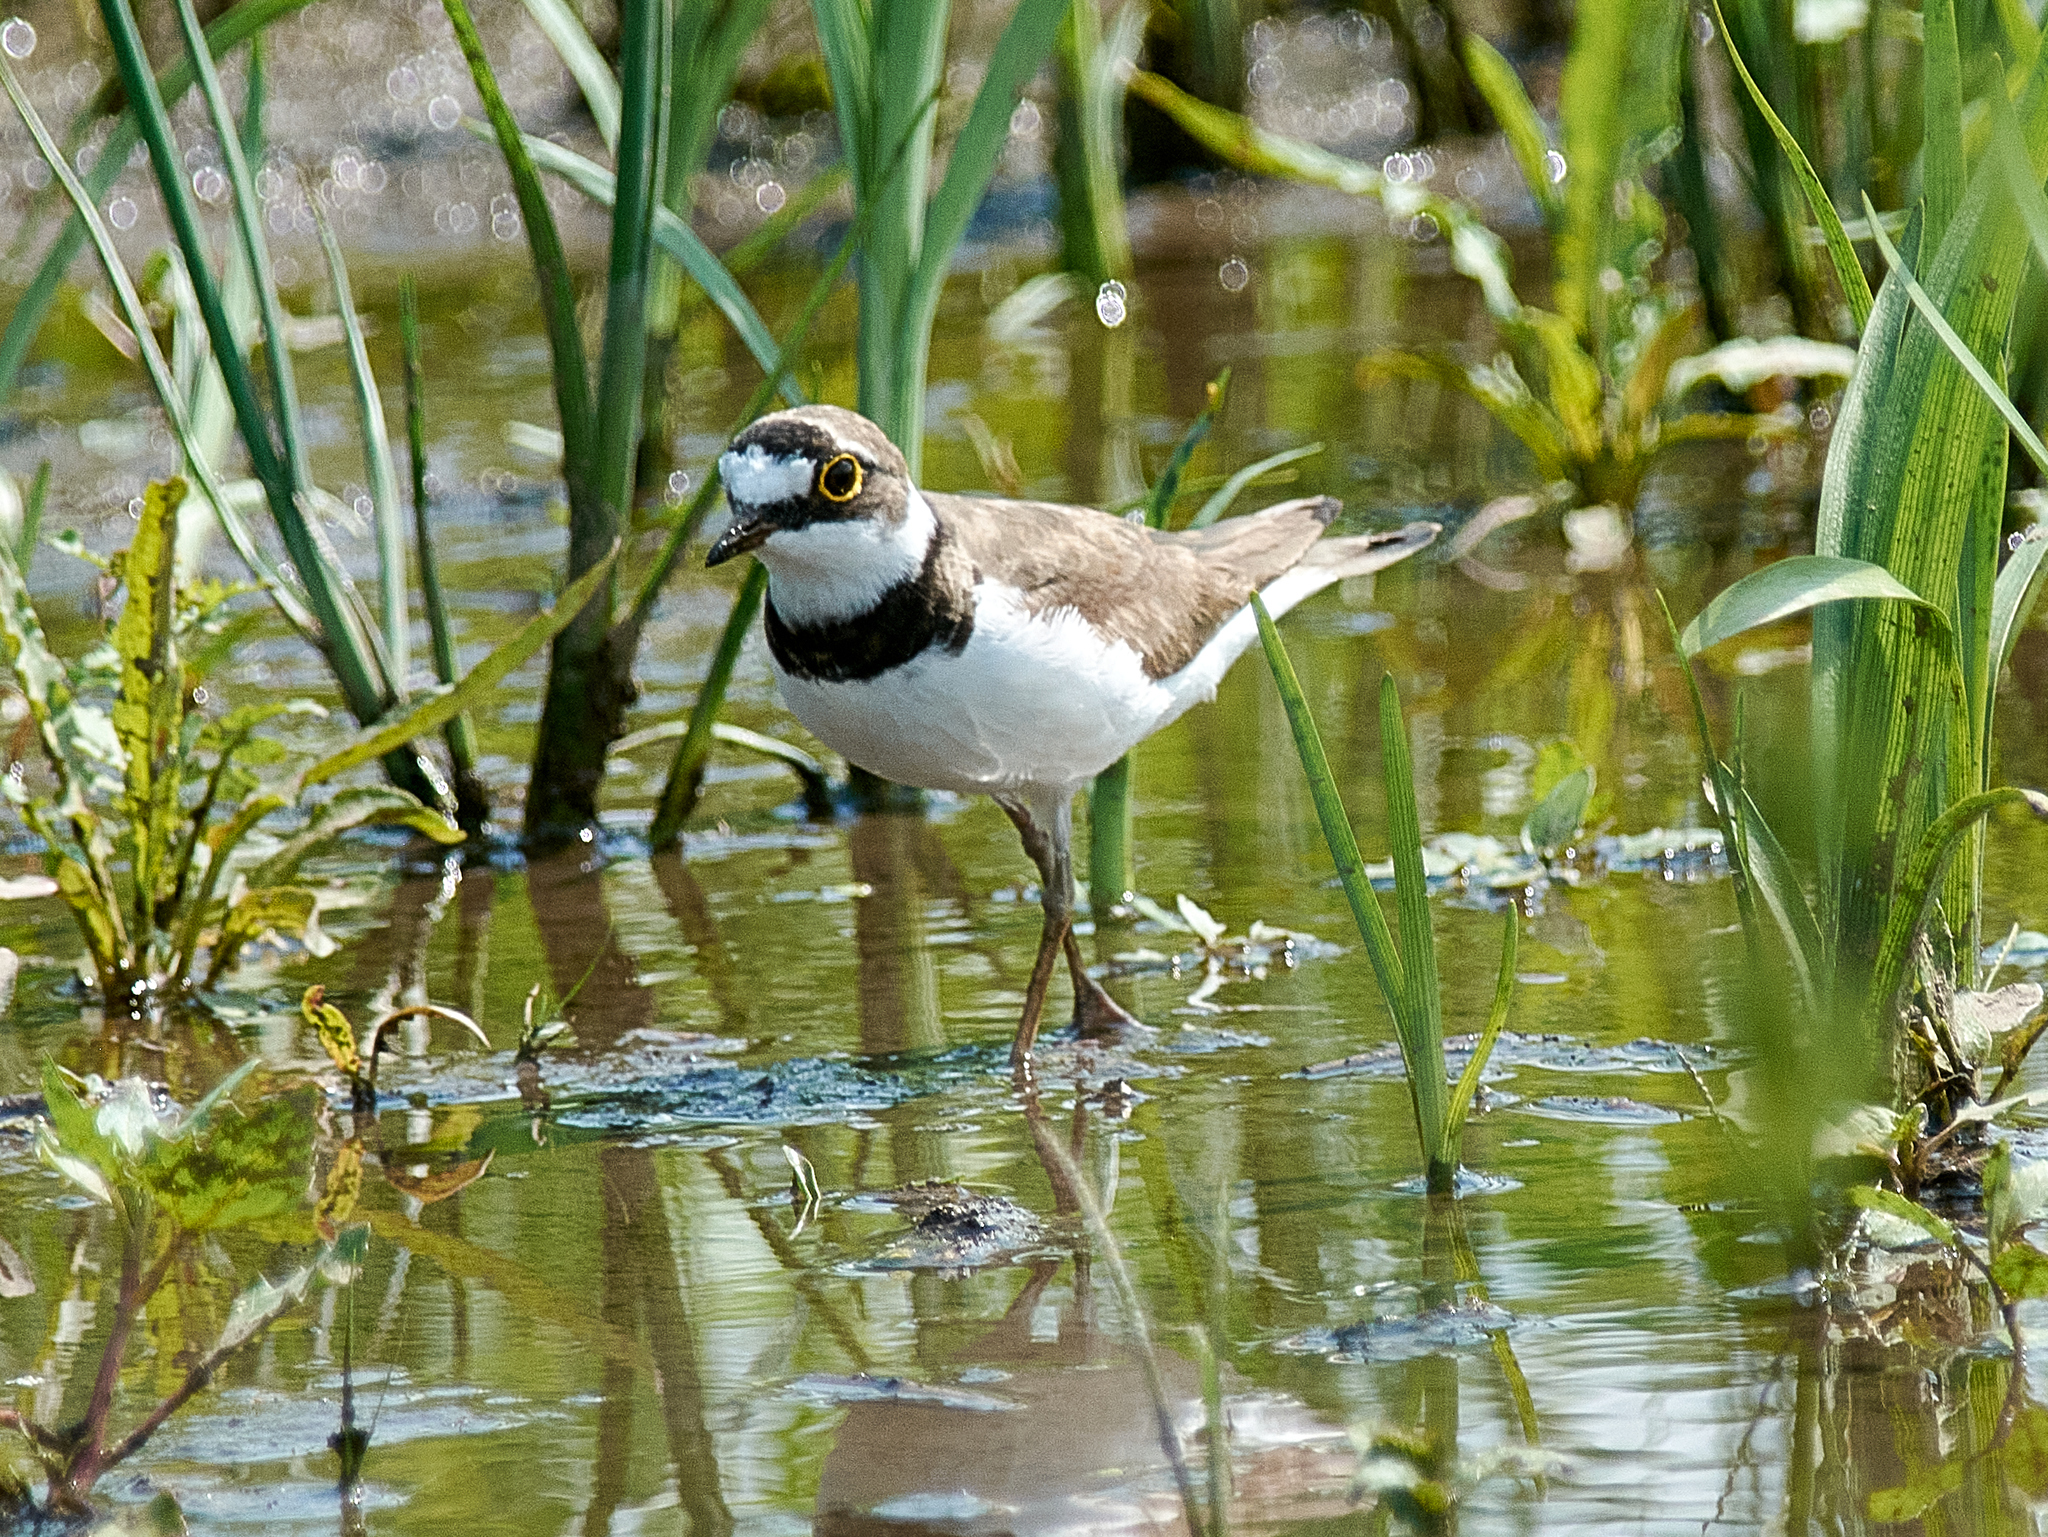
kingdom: Animalia
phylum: Chordata
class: Aves
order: Charadriiformes
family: Charadriidae
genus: Charadrius
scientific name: Charadrius dubius
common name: Little ringed plover
